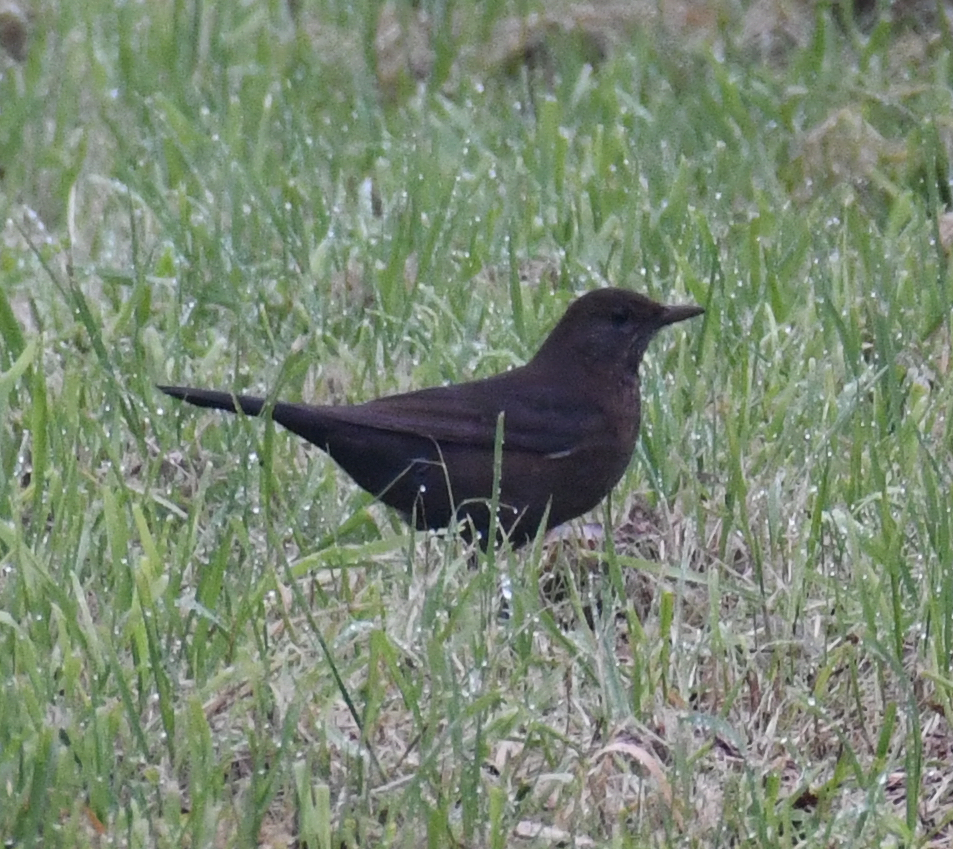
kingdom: Animalia
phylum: Chordata
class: Aves
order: Passeriformes
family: Turdidae
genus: Turdus
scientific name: Turdus merula
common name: Common blackbird
